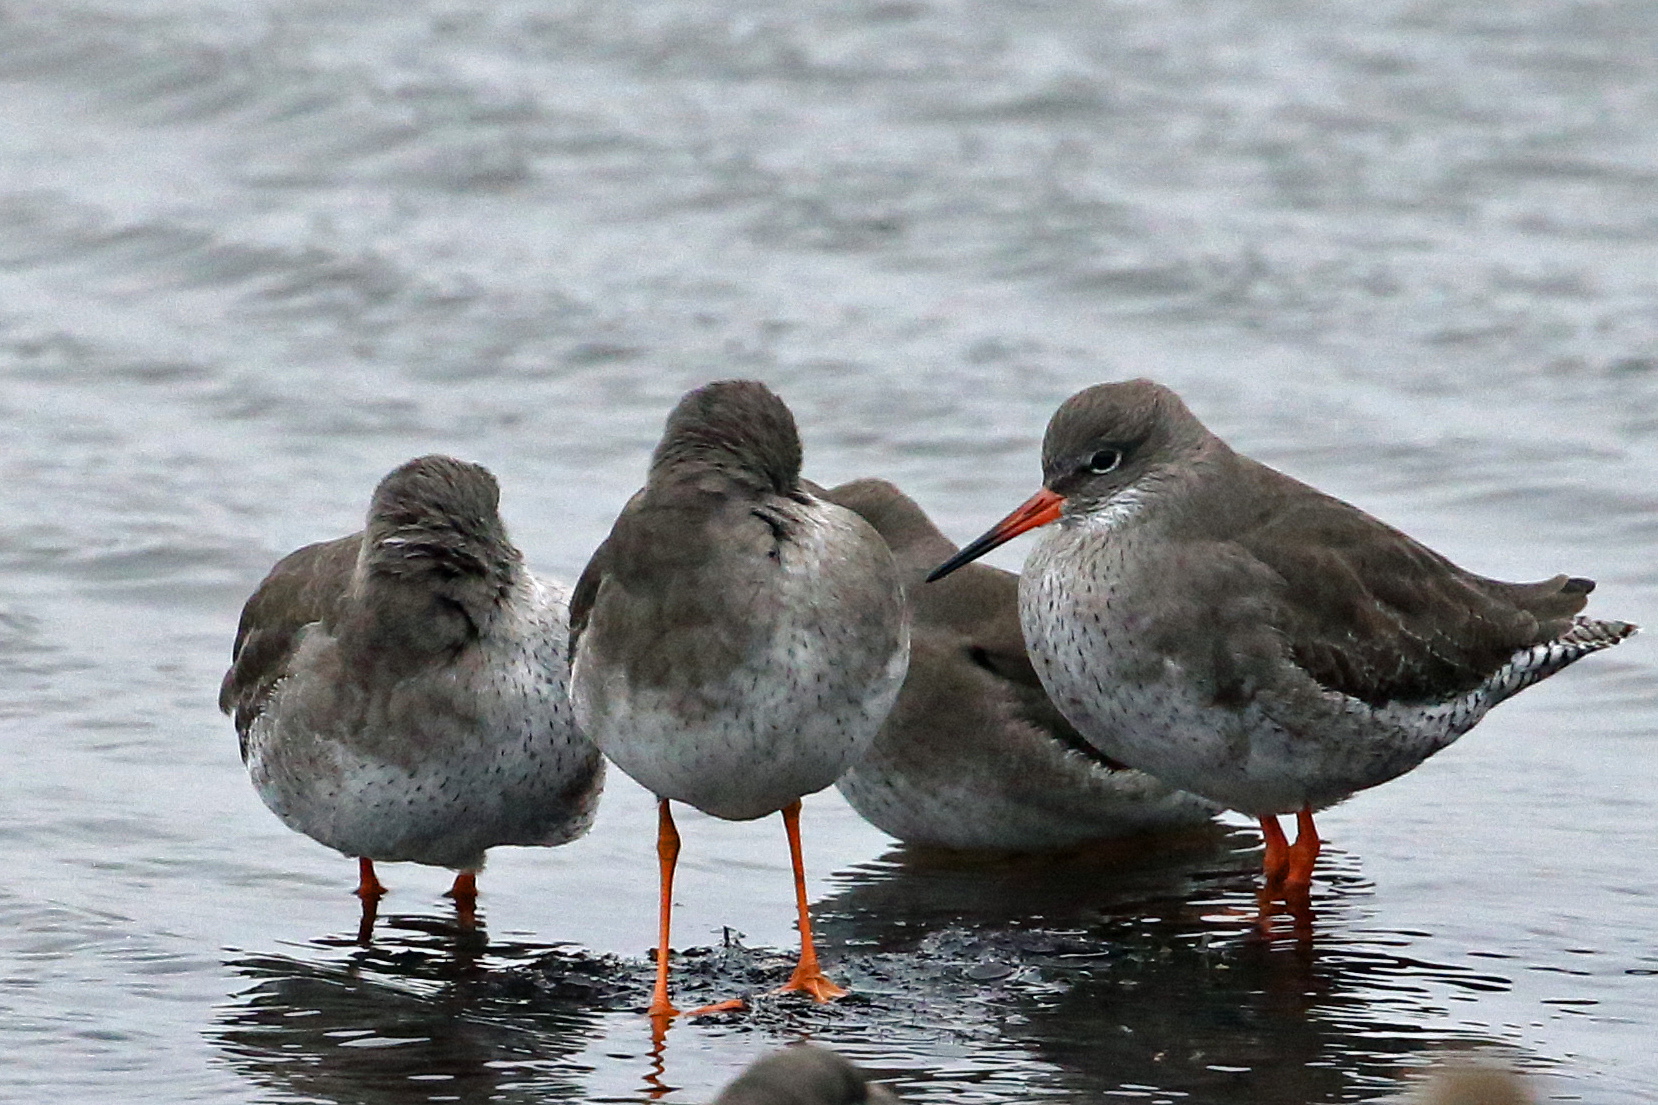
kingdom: Animalia
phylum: Chordata
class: Aves
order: Charadriiformes
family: Scolopacidae
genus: Tringa
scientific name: Tringa totanus
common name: Common redshank
